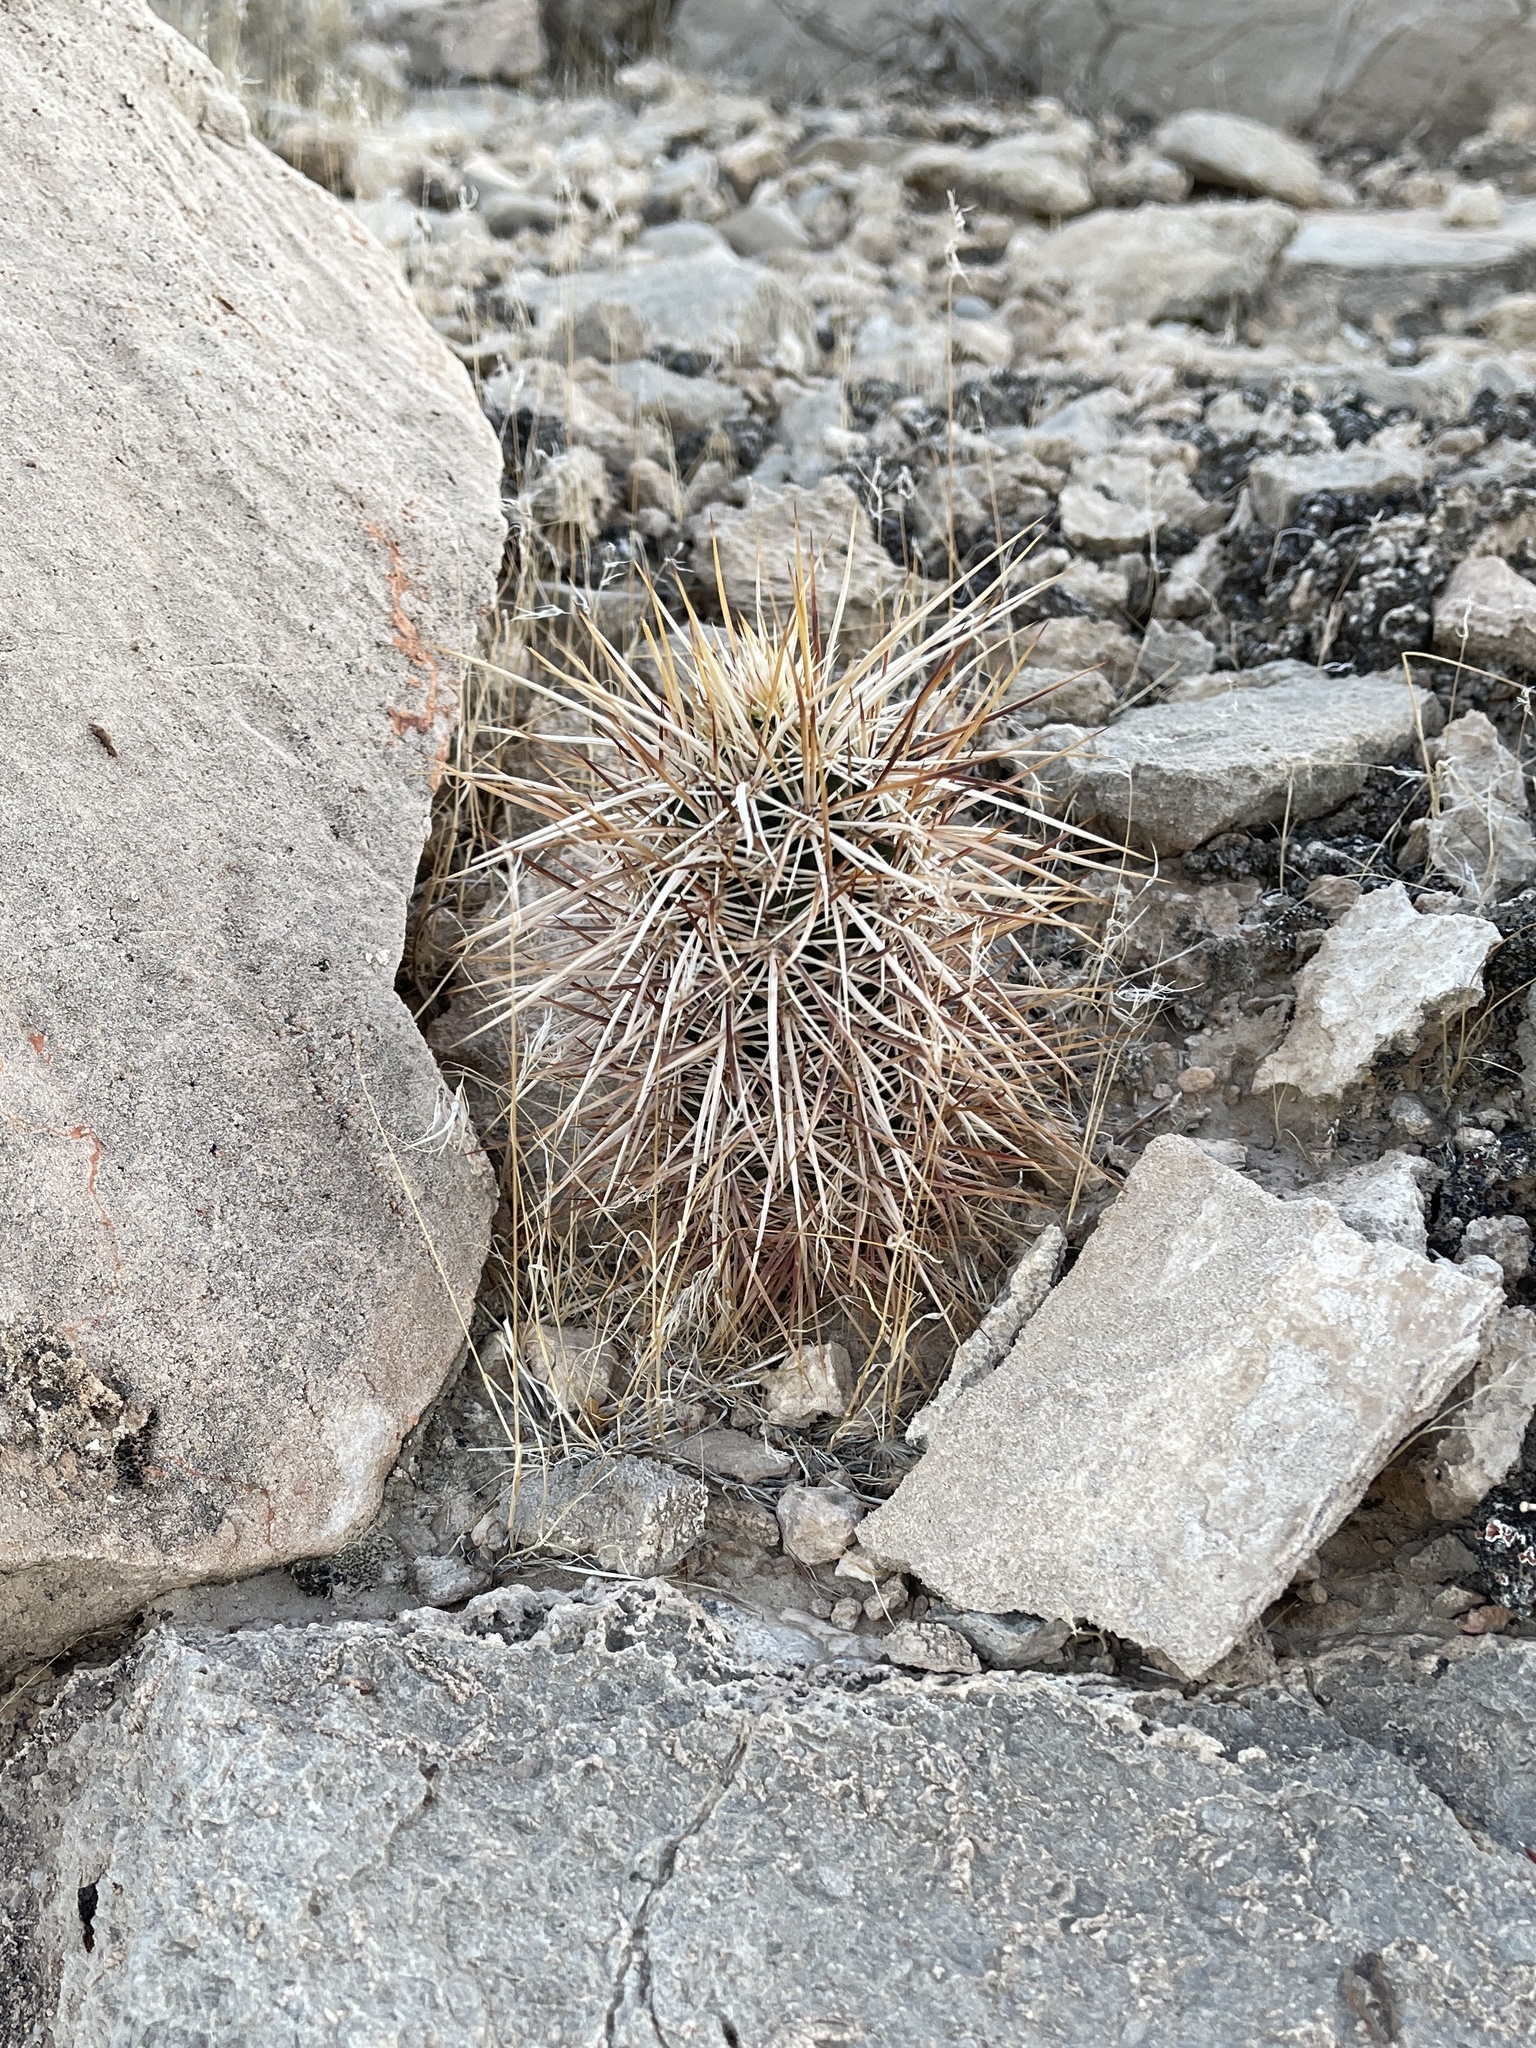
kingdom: Plantae
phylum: Tracheophyta
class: Magnoliopsida
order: Caryophyllales
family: Cactaceae
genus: Echinocereus
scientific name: Echinocereus engelmannii
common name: Engelmann's hedgehog cactus
